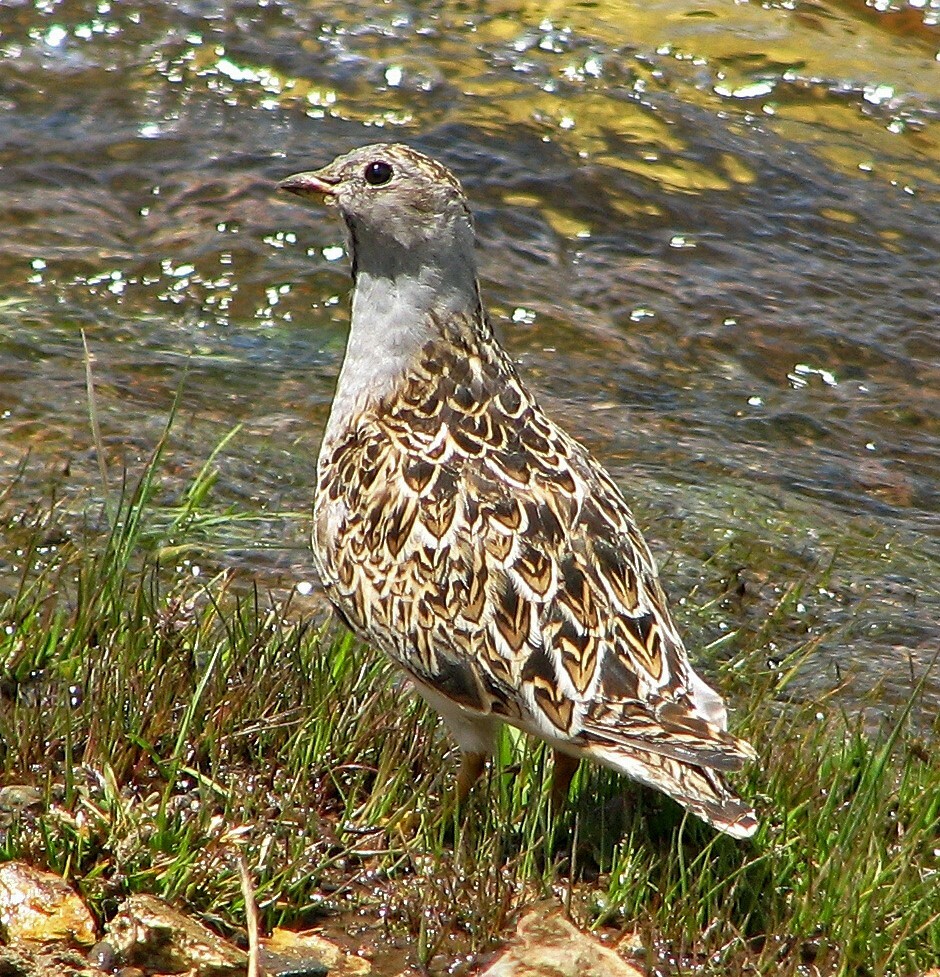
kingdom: Animalia
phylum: Chordata
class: Aves
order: Charadriiformes
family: Thinocoridae
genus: Thinocorus
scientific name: Thinocorus orbignyianus
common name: Grey-breasted seedsnipe
